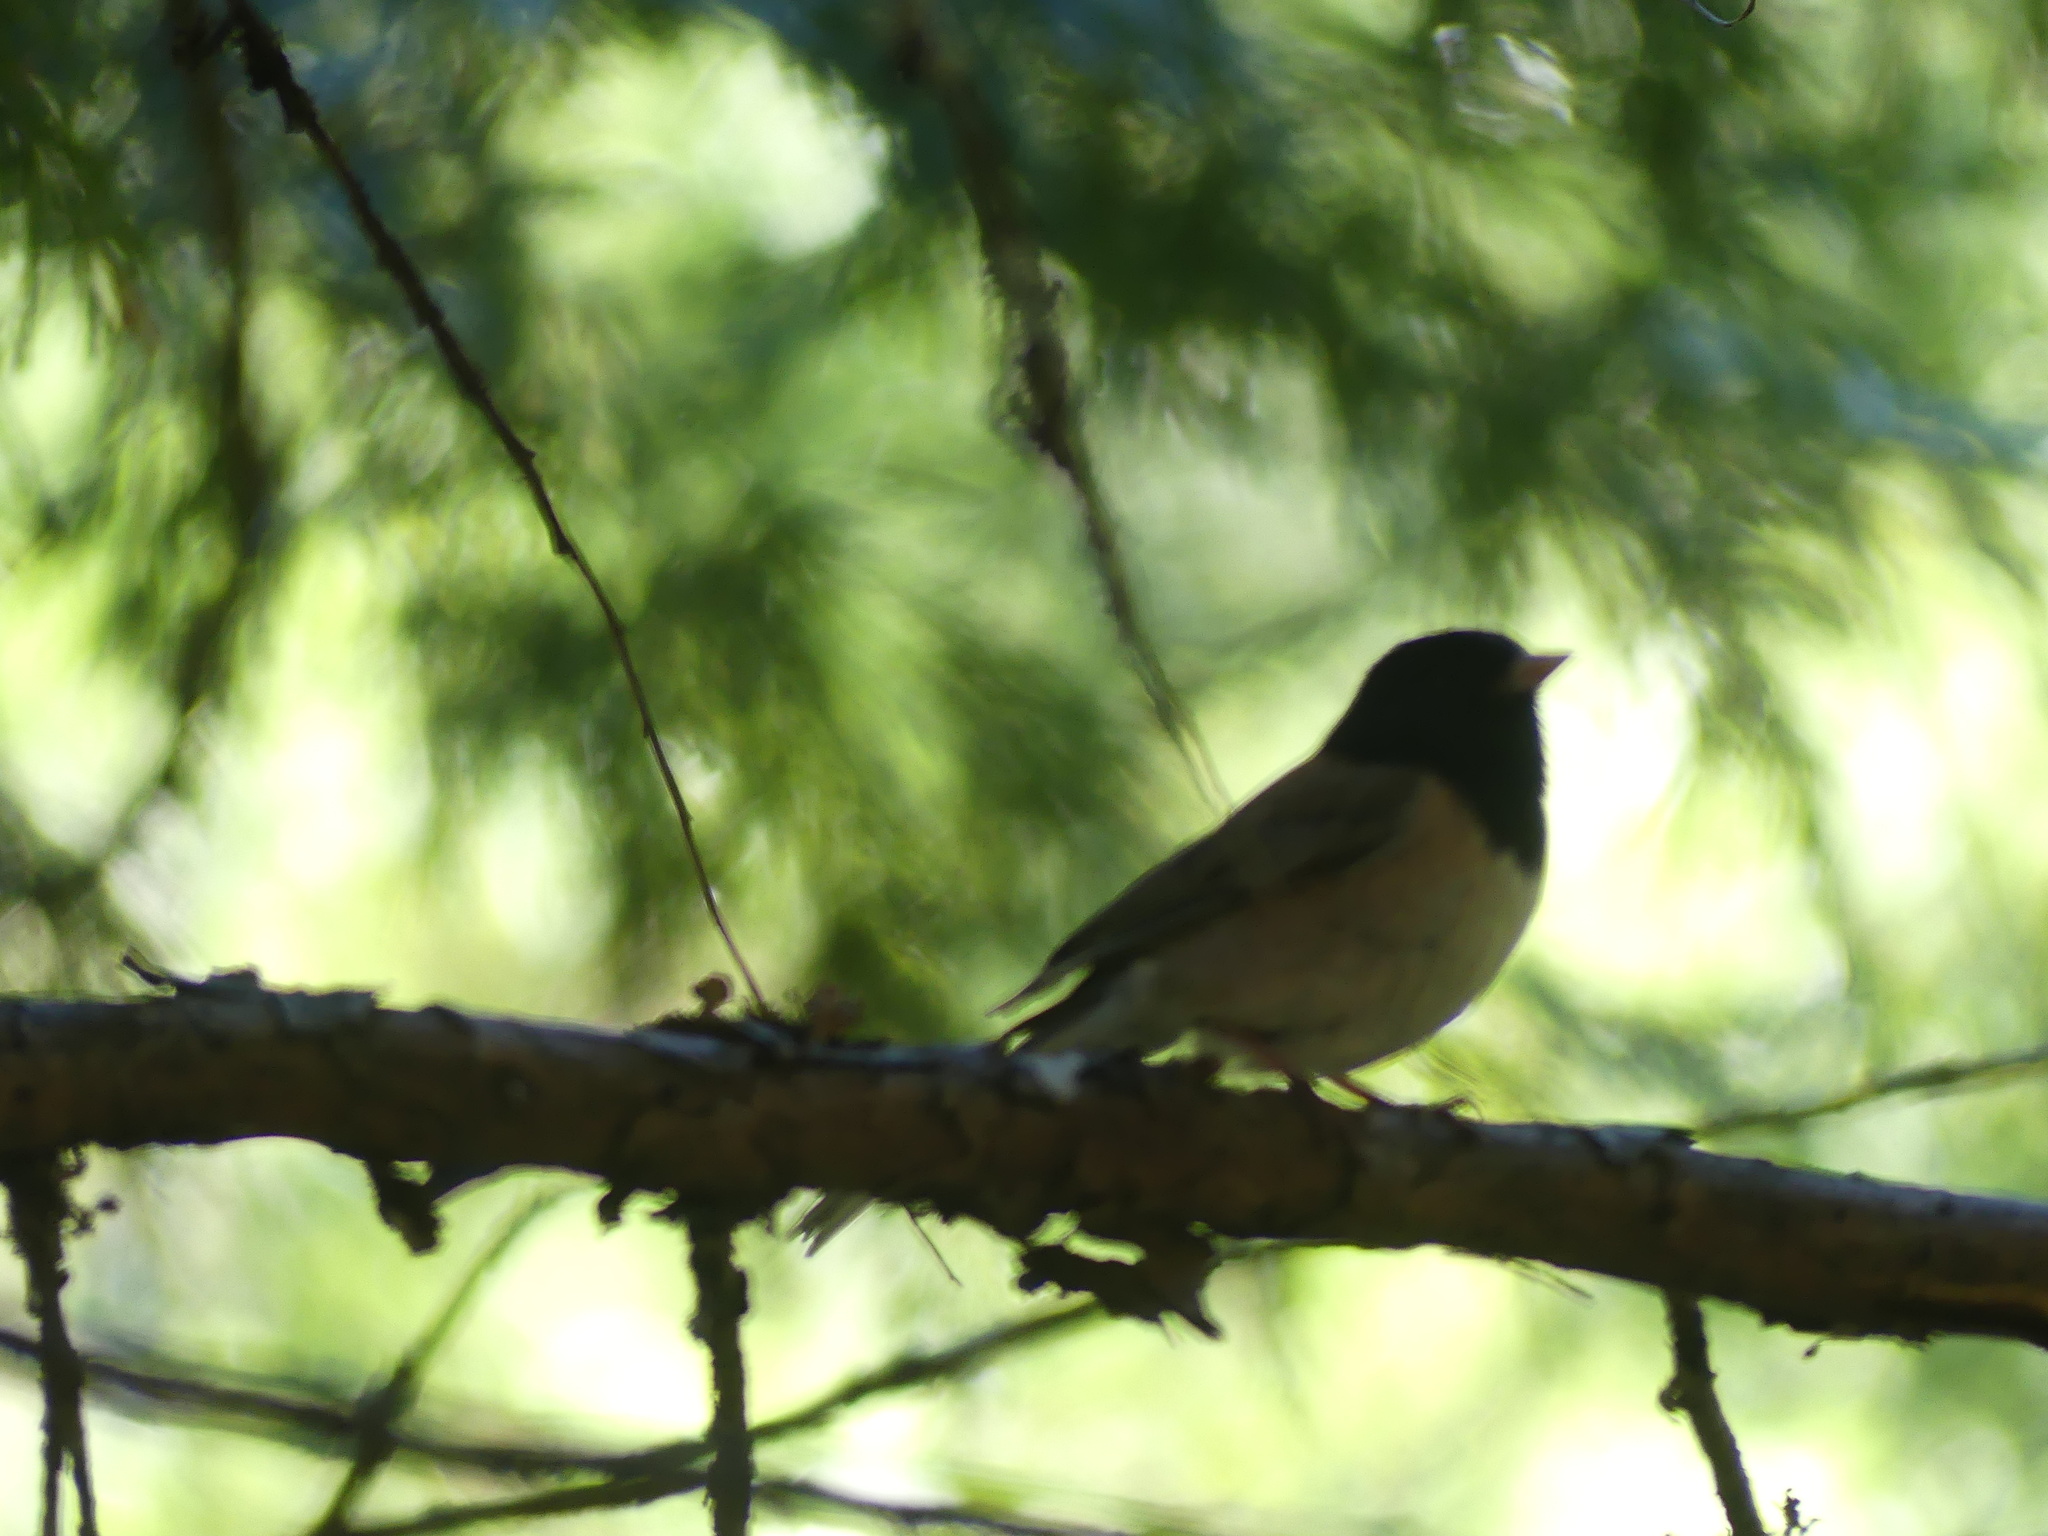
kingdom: Animalia
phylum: Chordata
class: Aves
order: Passeriformes
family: Passerellidae
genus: Junco
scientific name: Junco hyemalis
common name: Dark-eyed junco
